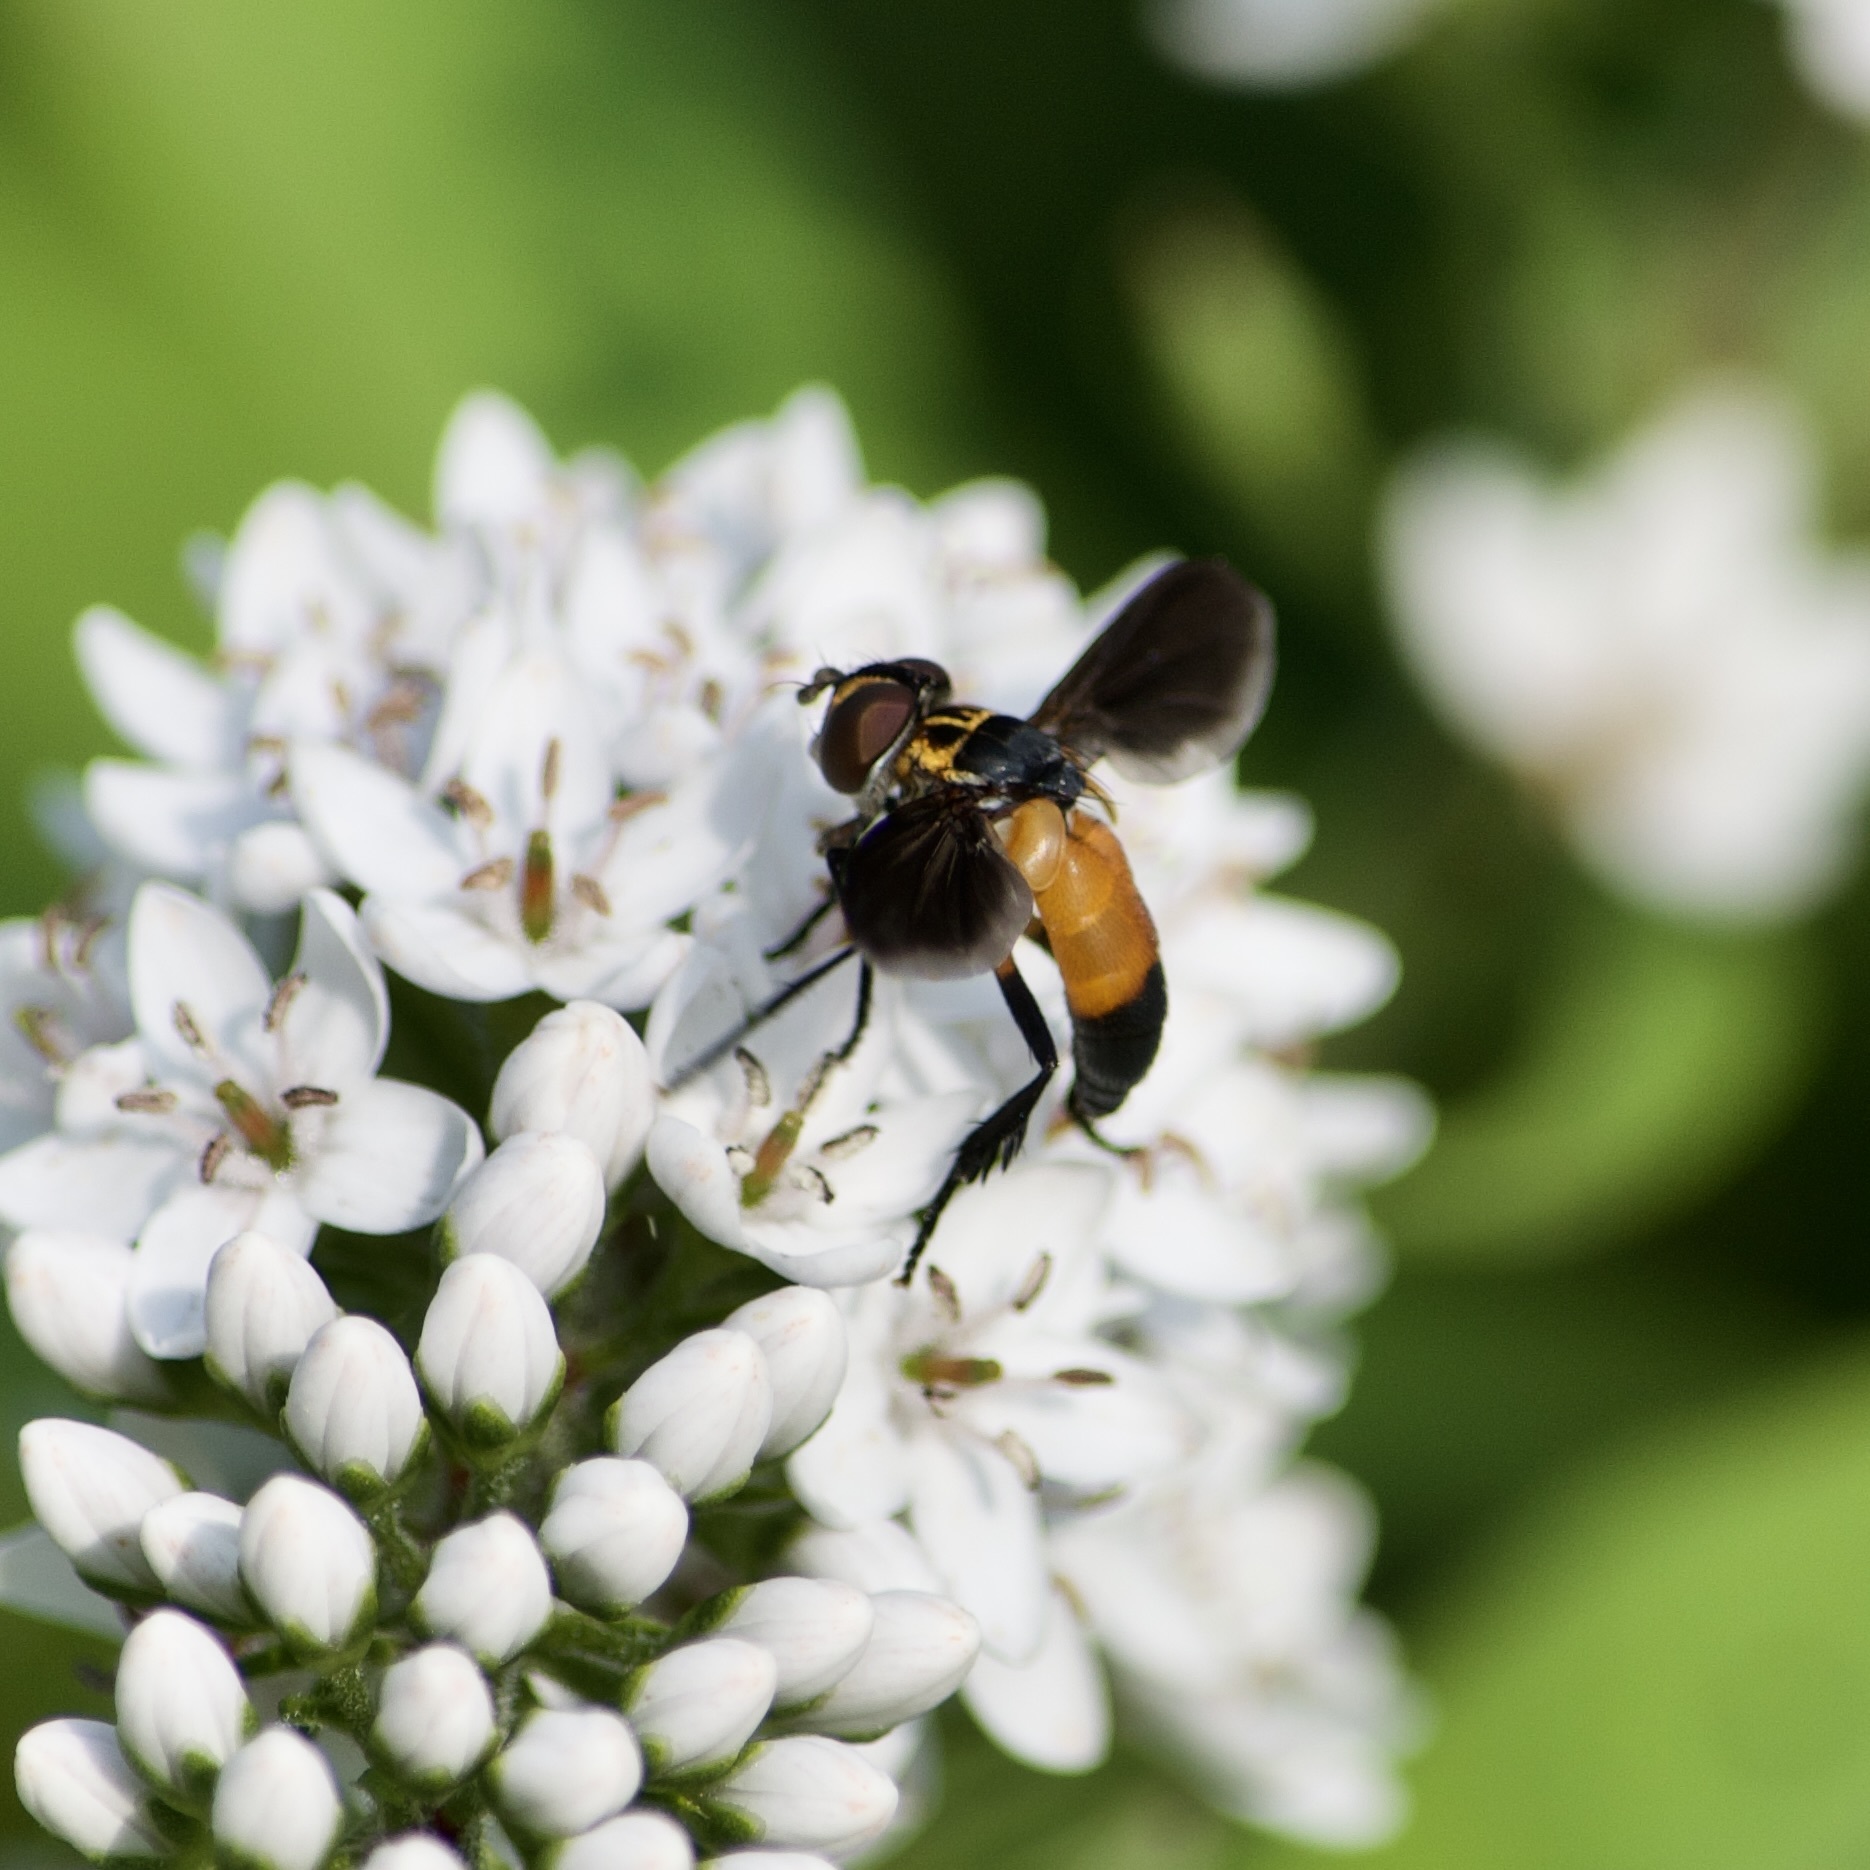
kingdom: Animalia
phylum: Arthropoda
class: Insecta
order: Diptera
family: Tachinidae
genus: Trichopoda
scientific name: Trichopoda pennipes
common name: Tachinid fly
